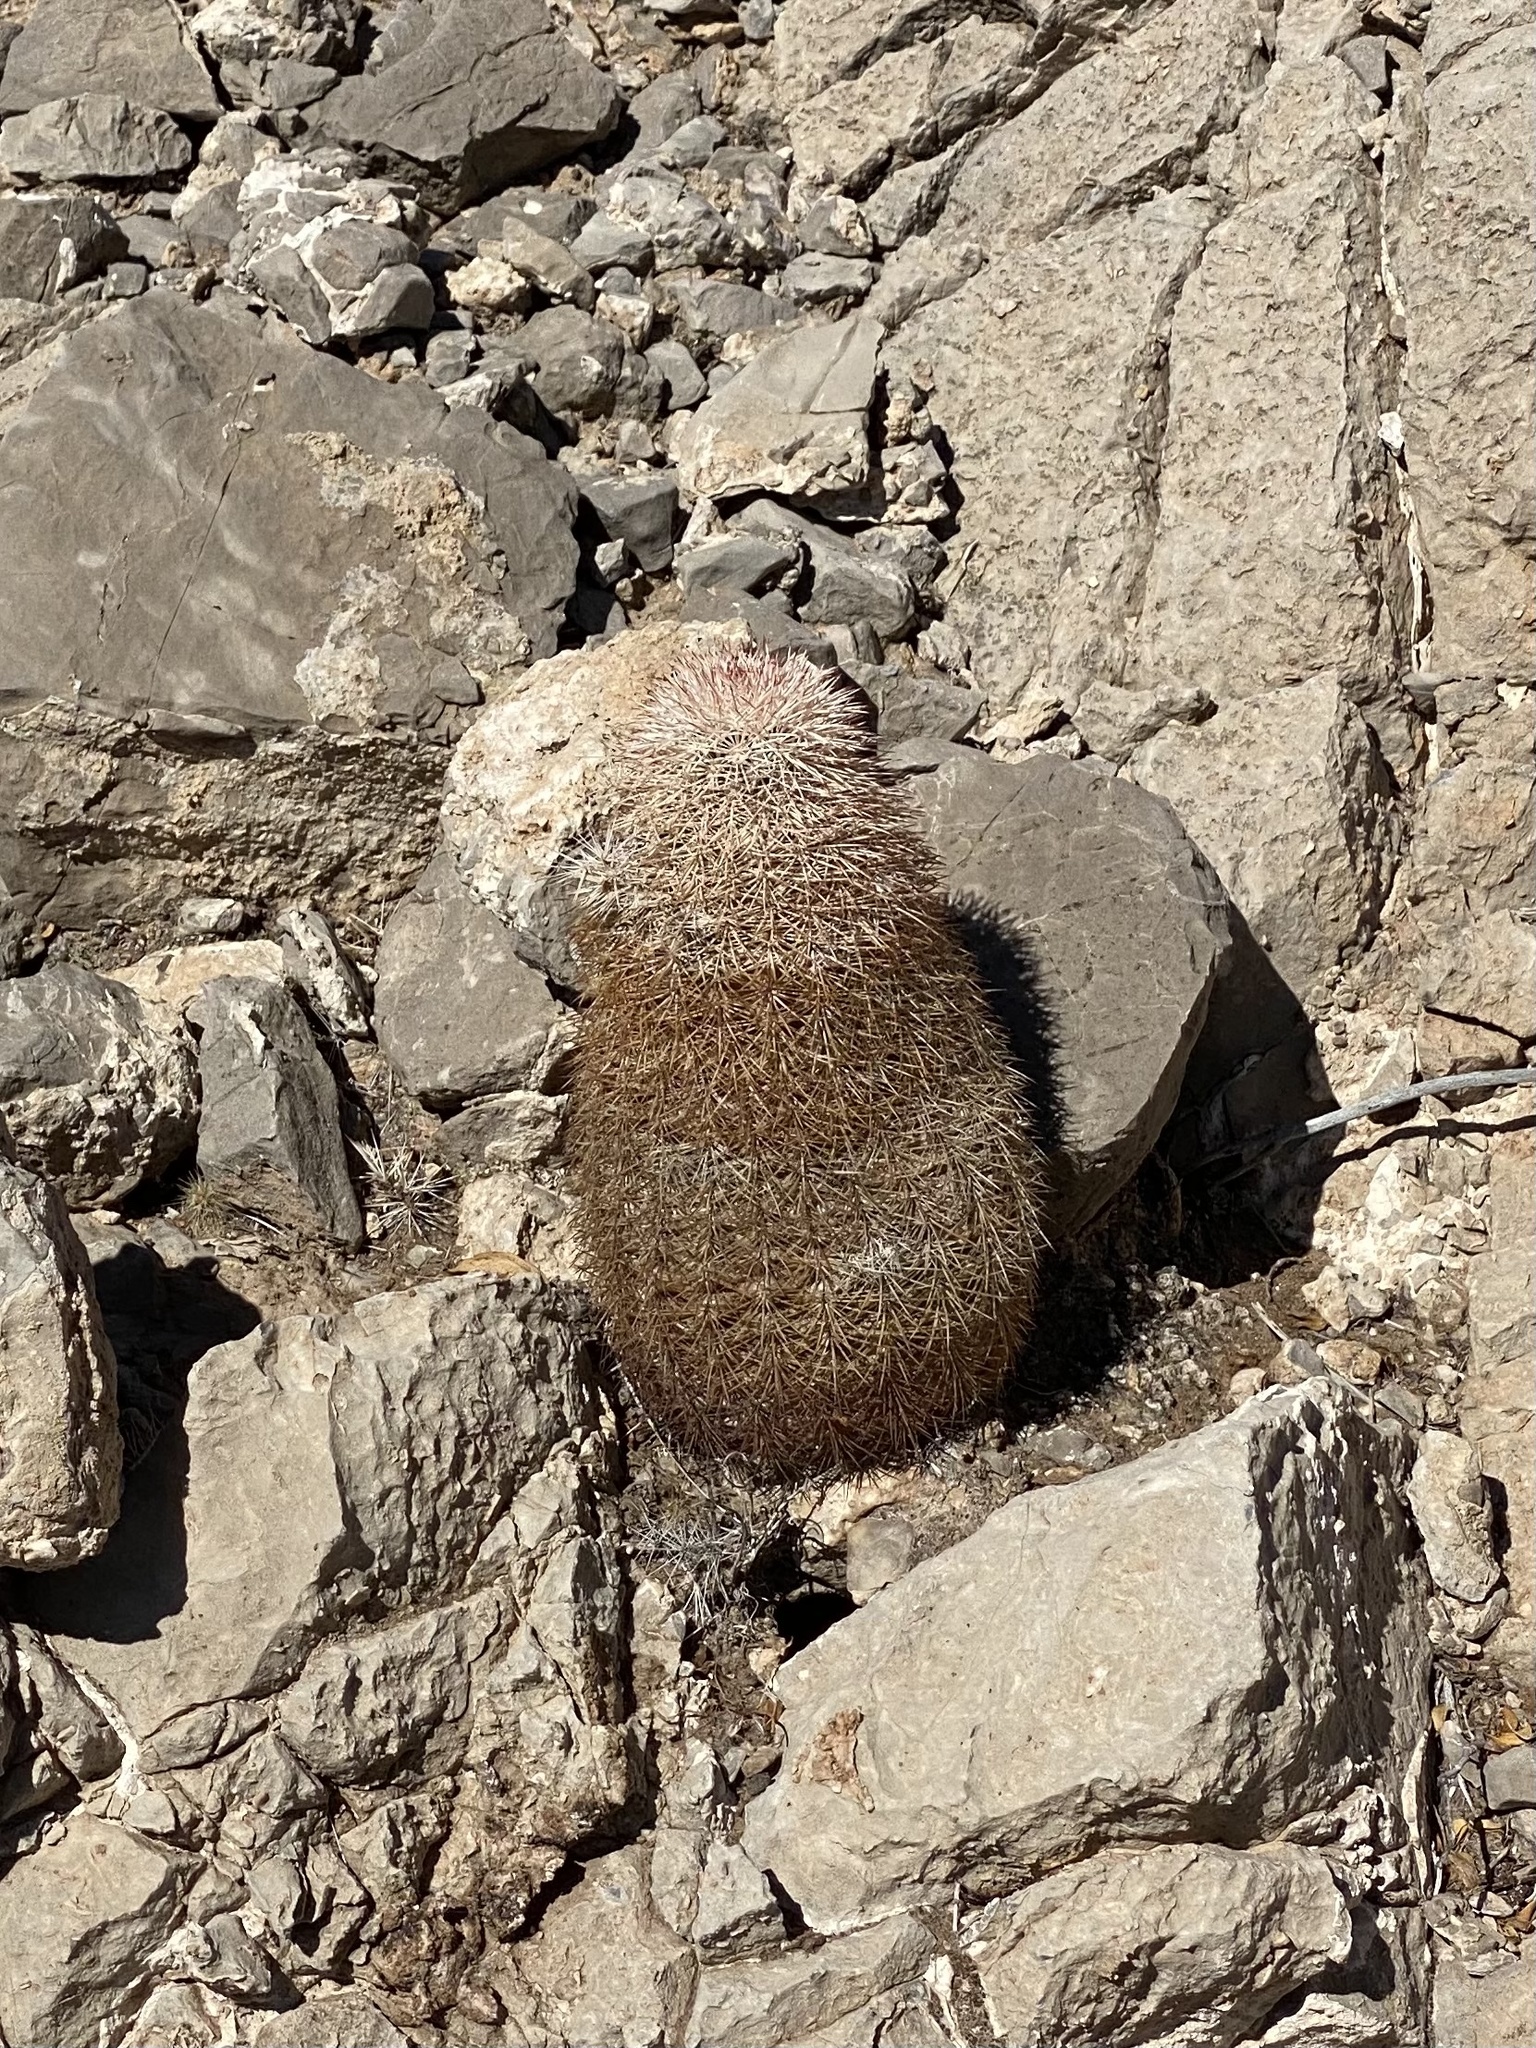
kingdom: Plantae
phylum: Tracheophyta
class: Magnoliopsida
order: Caryophyllales
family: Cactaceae
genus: Echinocereus
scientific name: Echinocereus dasyacanthus
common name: Spiny hedgehog cactus
